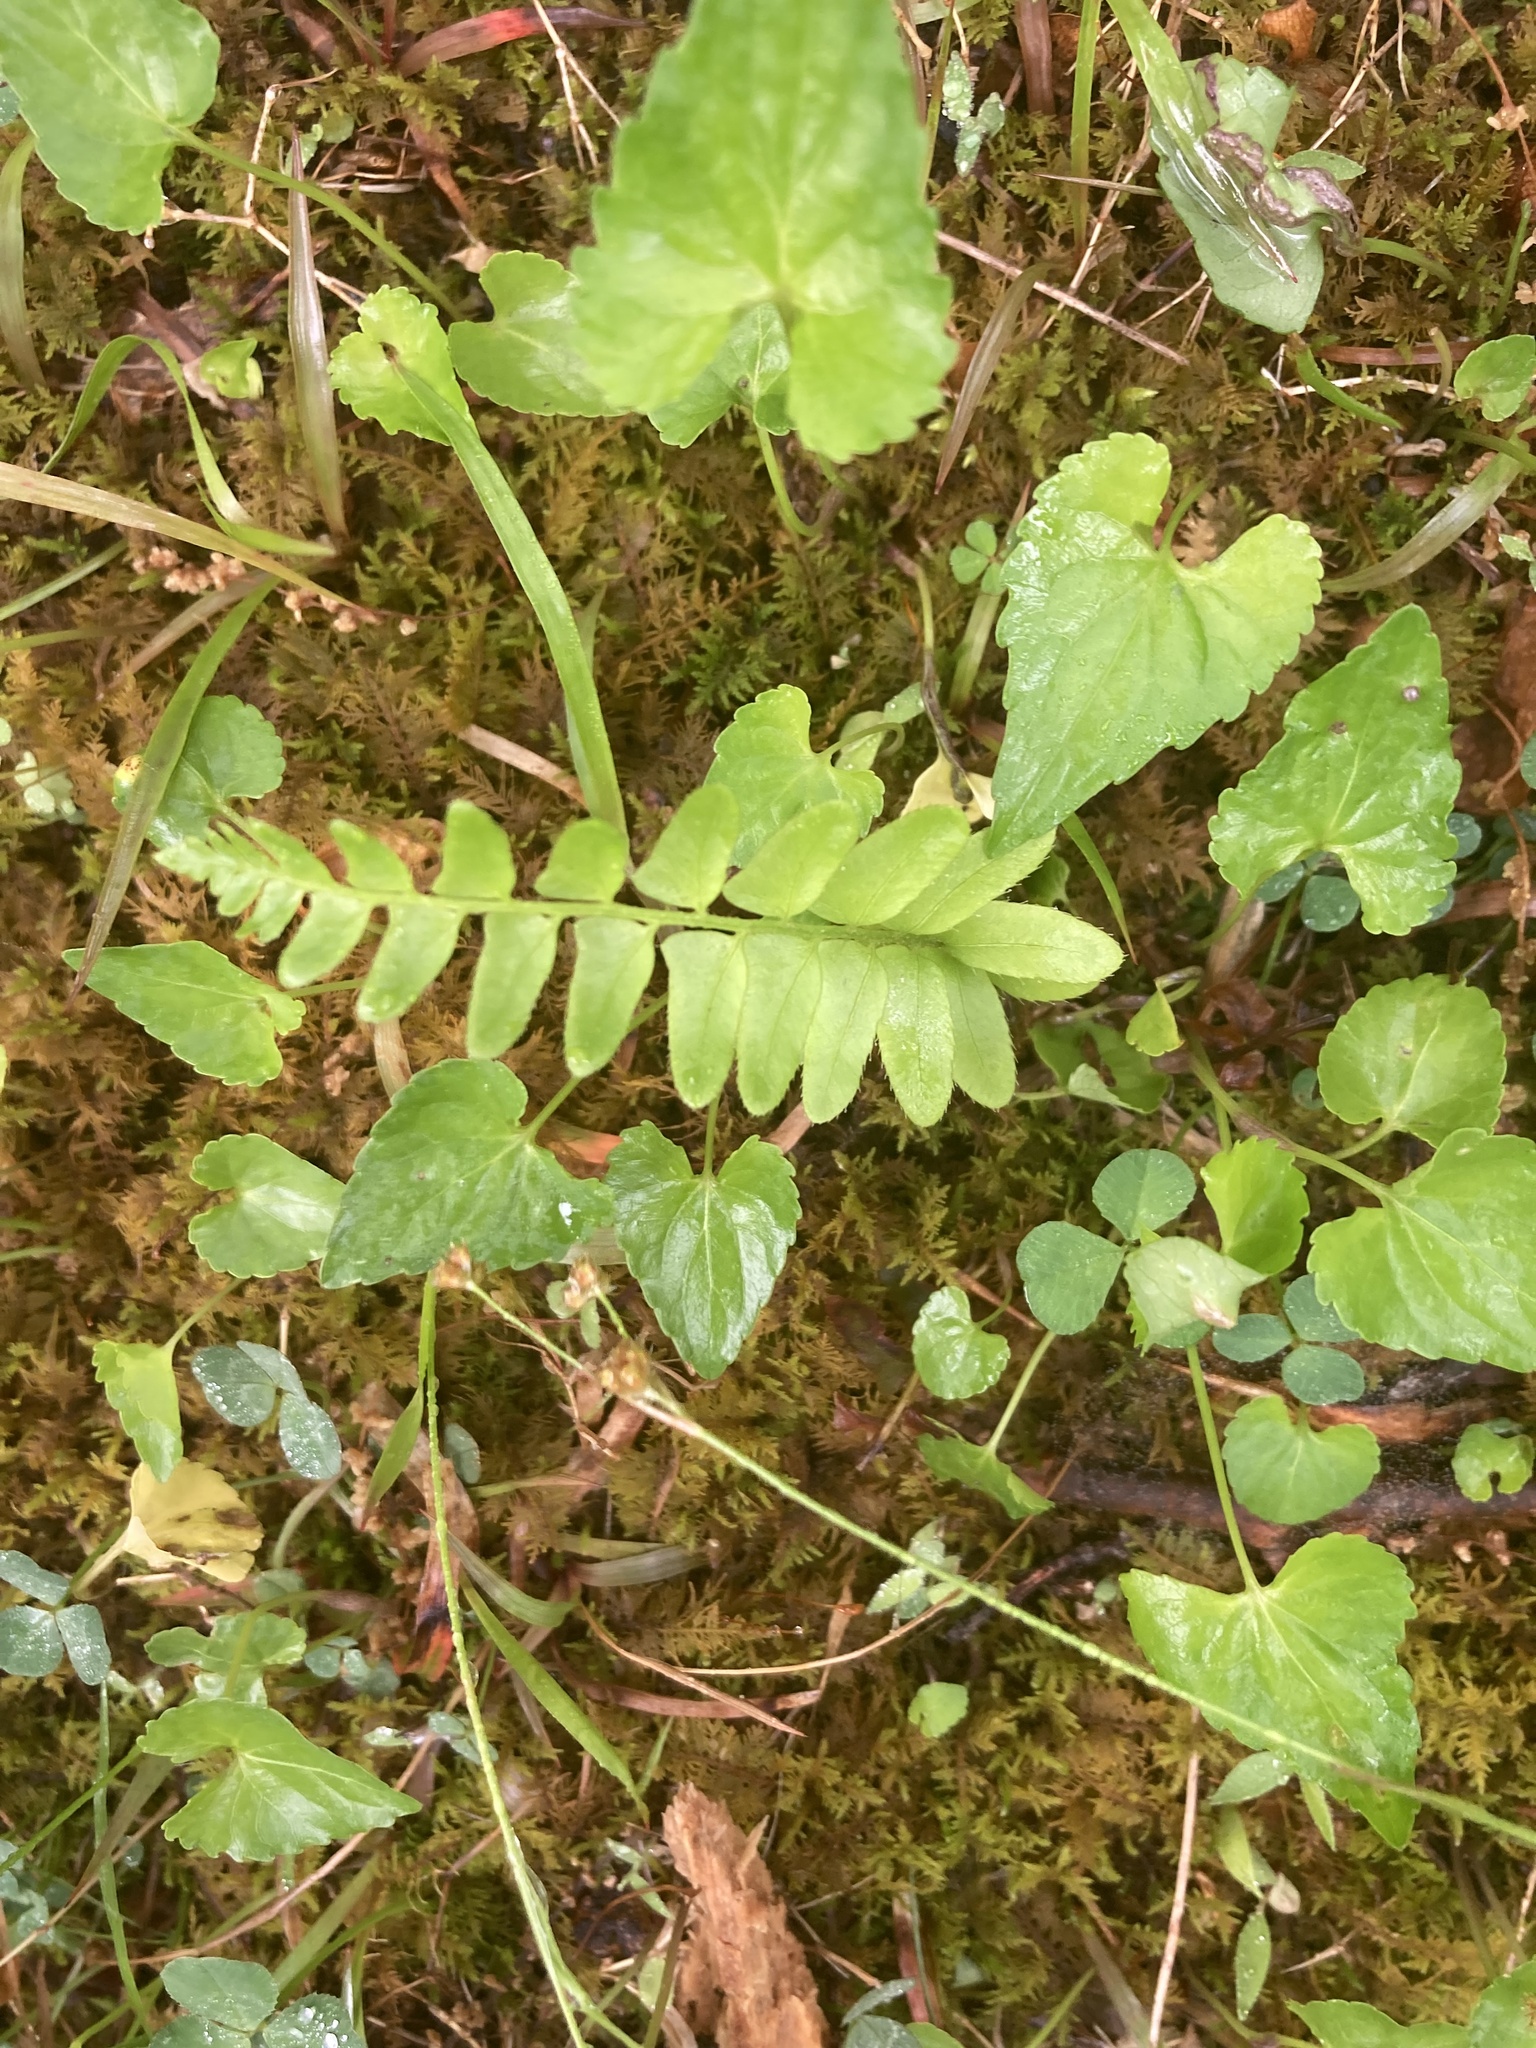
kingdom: Plantae
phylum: Tracheophyta
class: Polypodiopsida
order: Polypodiales
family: Dryopteridaceae
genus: Polystichum
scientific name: Polystichum acrostichoides
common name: Christmas fern
